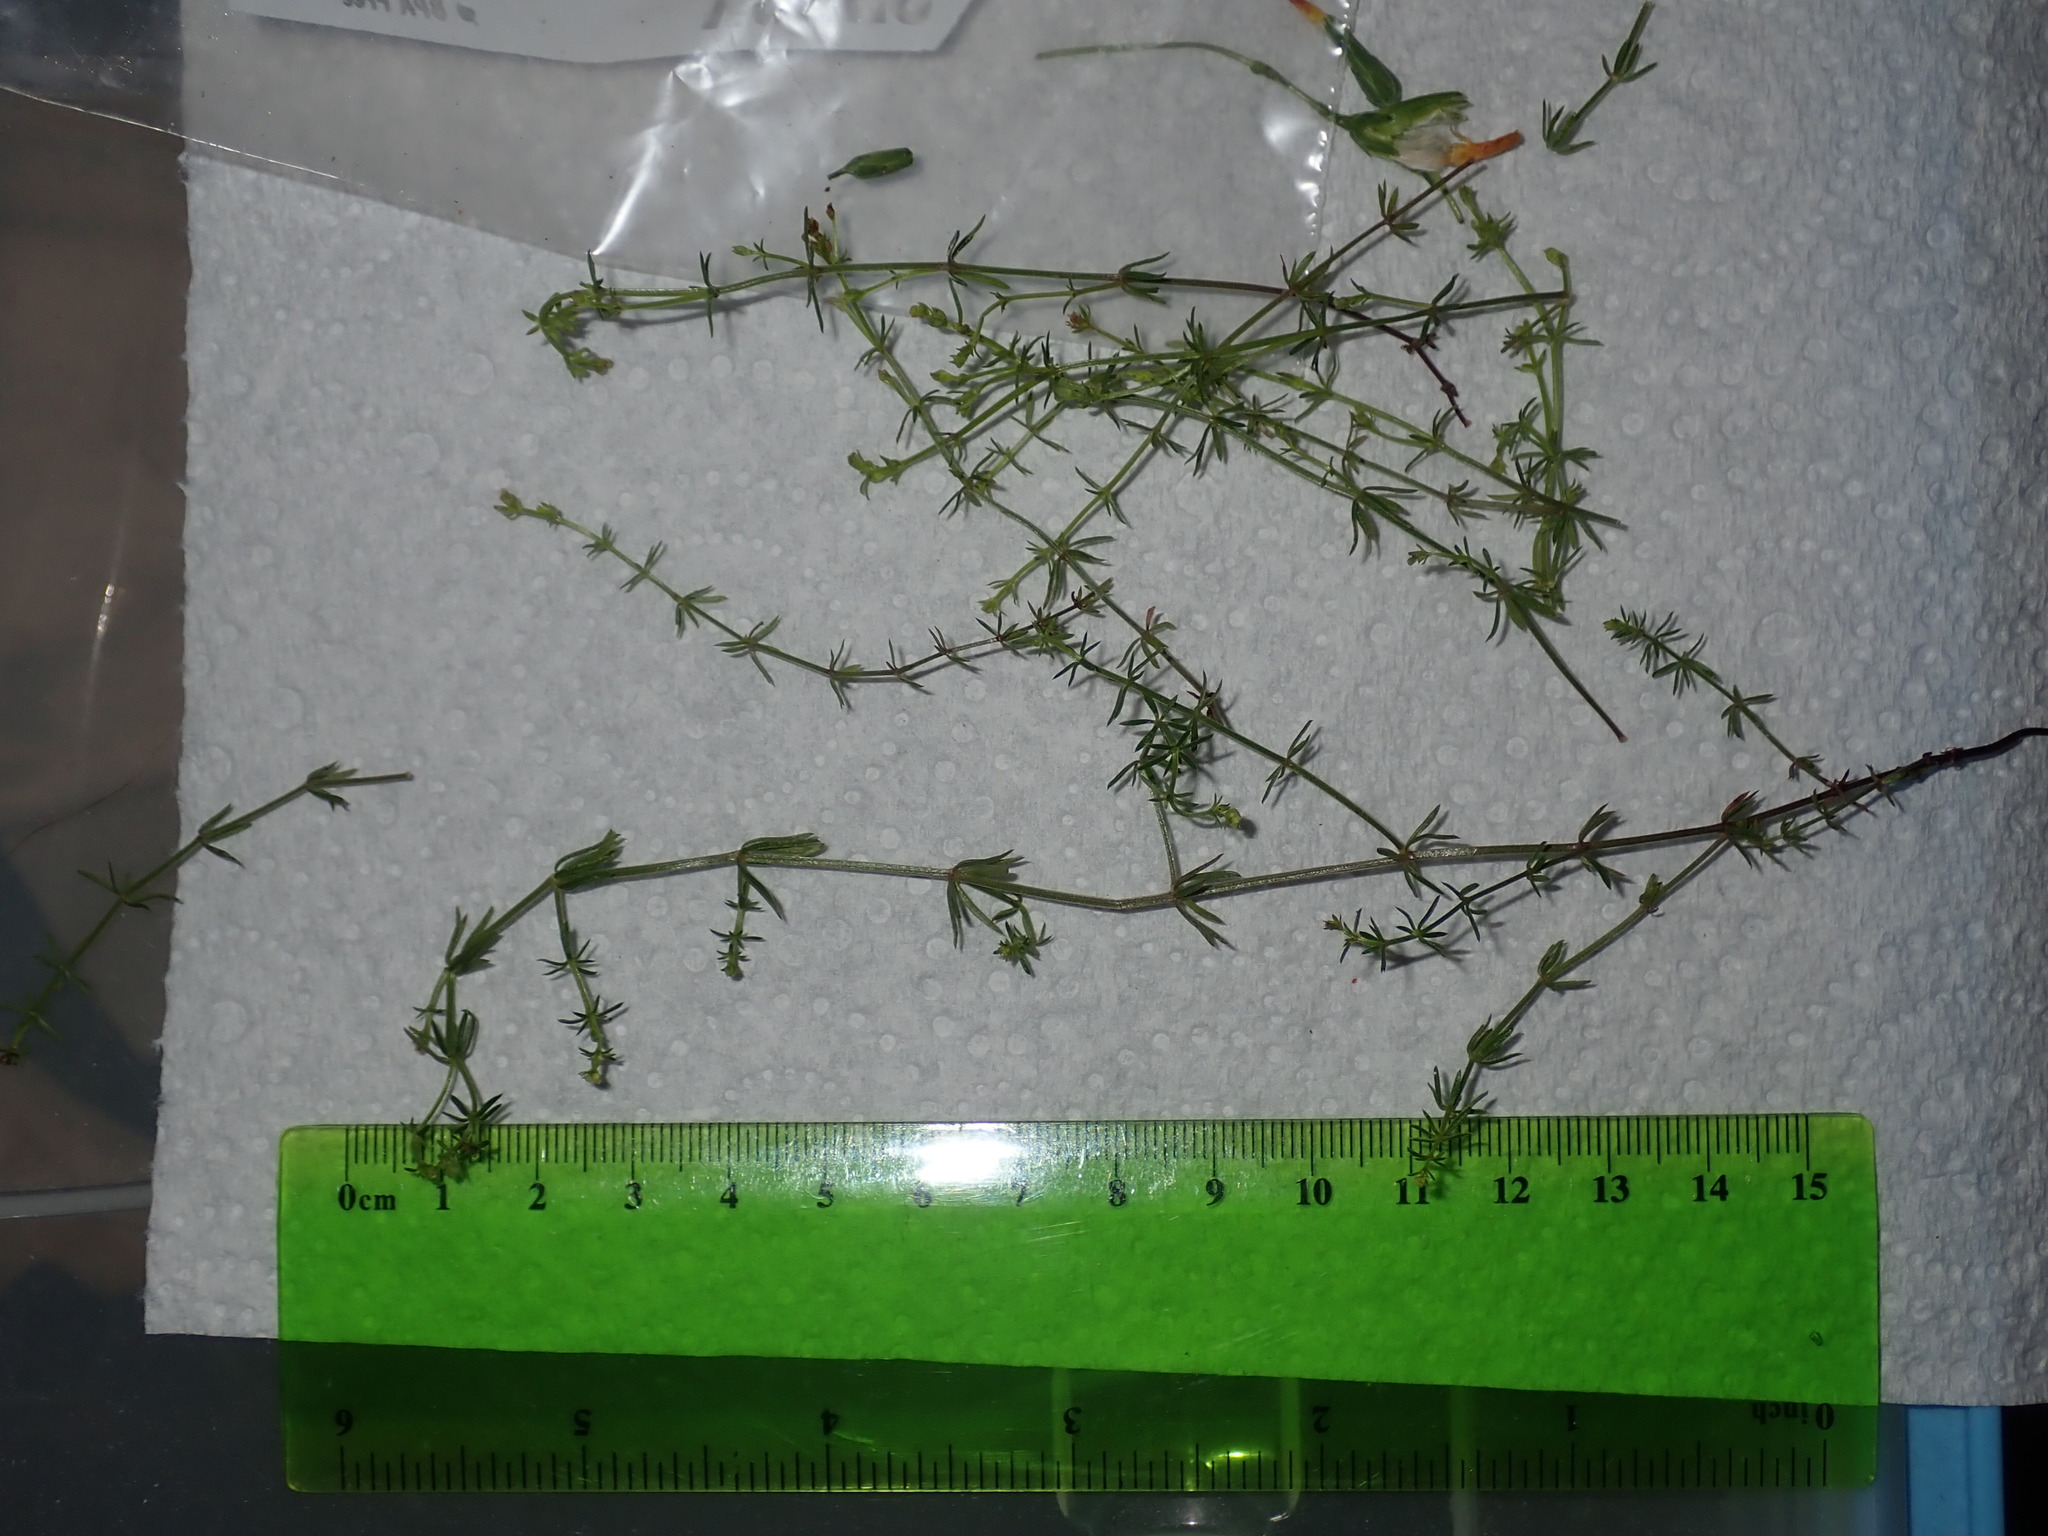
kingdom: Plantae
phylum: Tracheophyta
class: Magnoliopsida
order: Gentianales
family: Rubiaceae
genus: Asperula
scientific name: Asperula conferta
